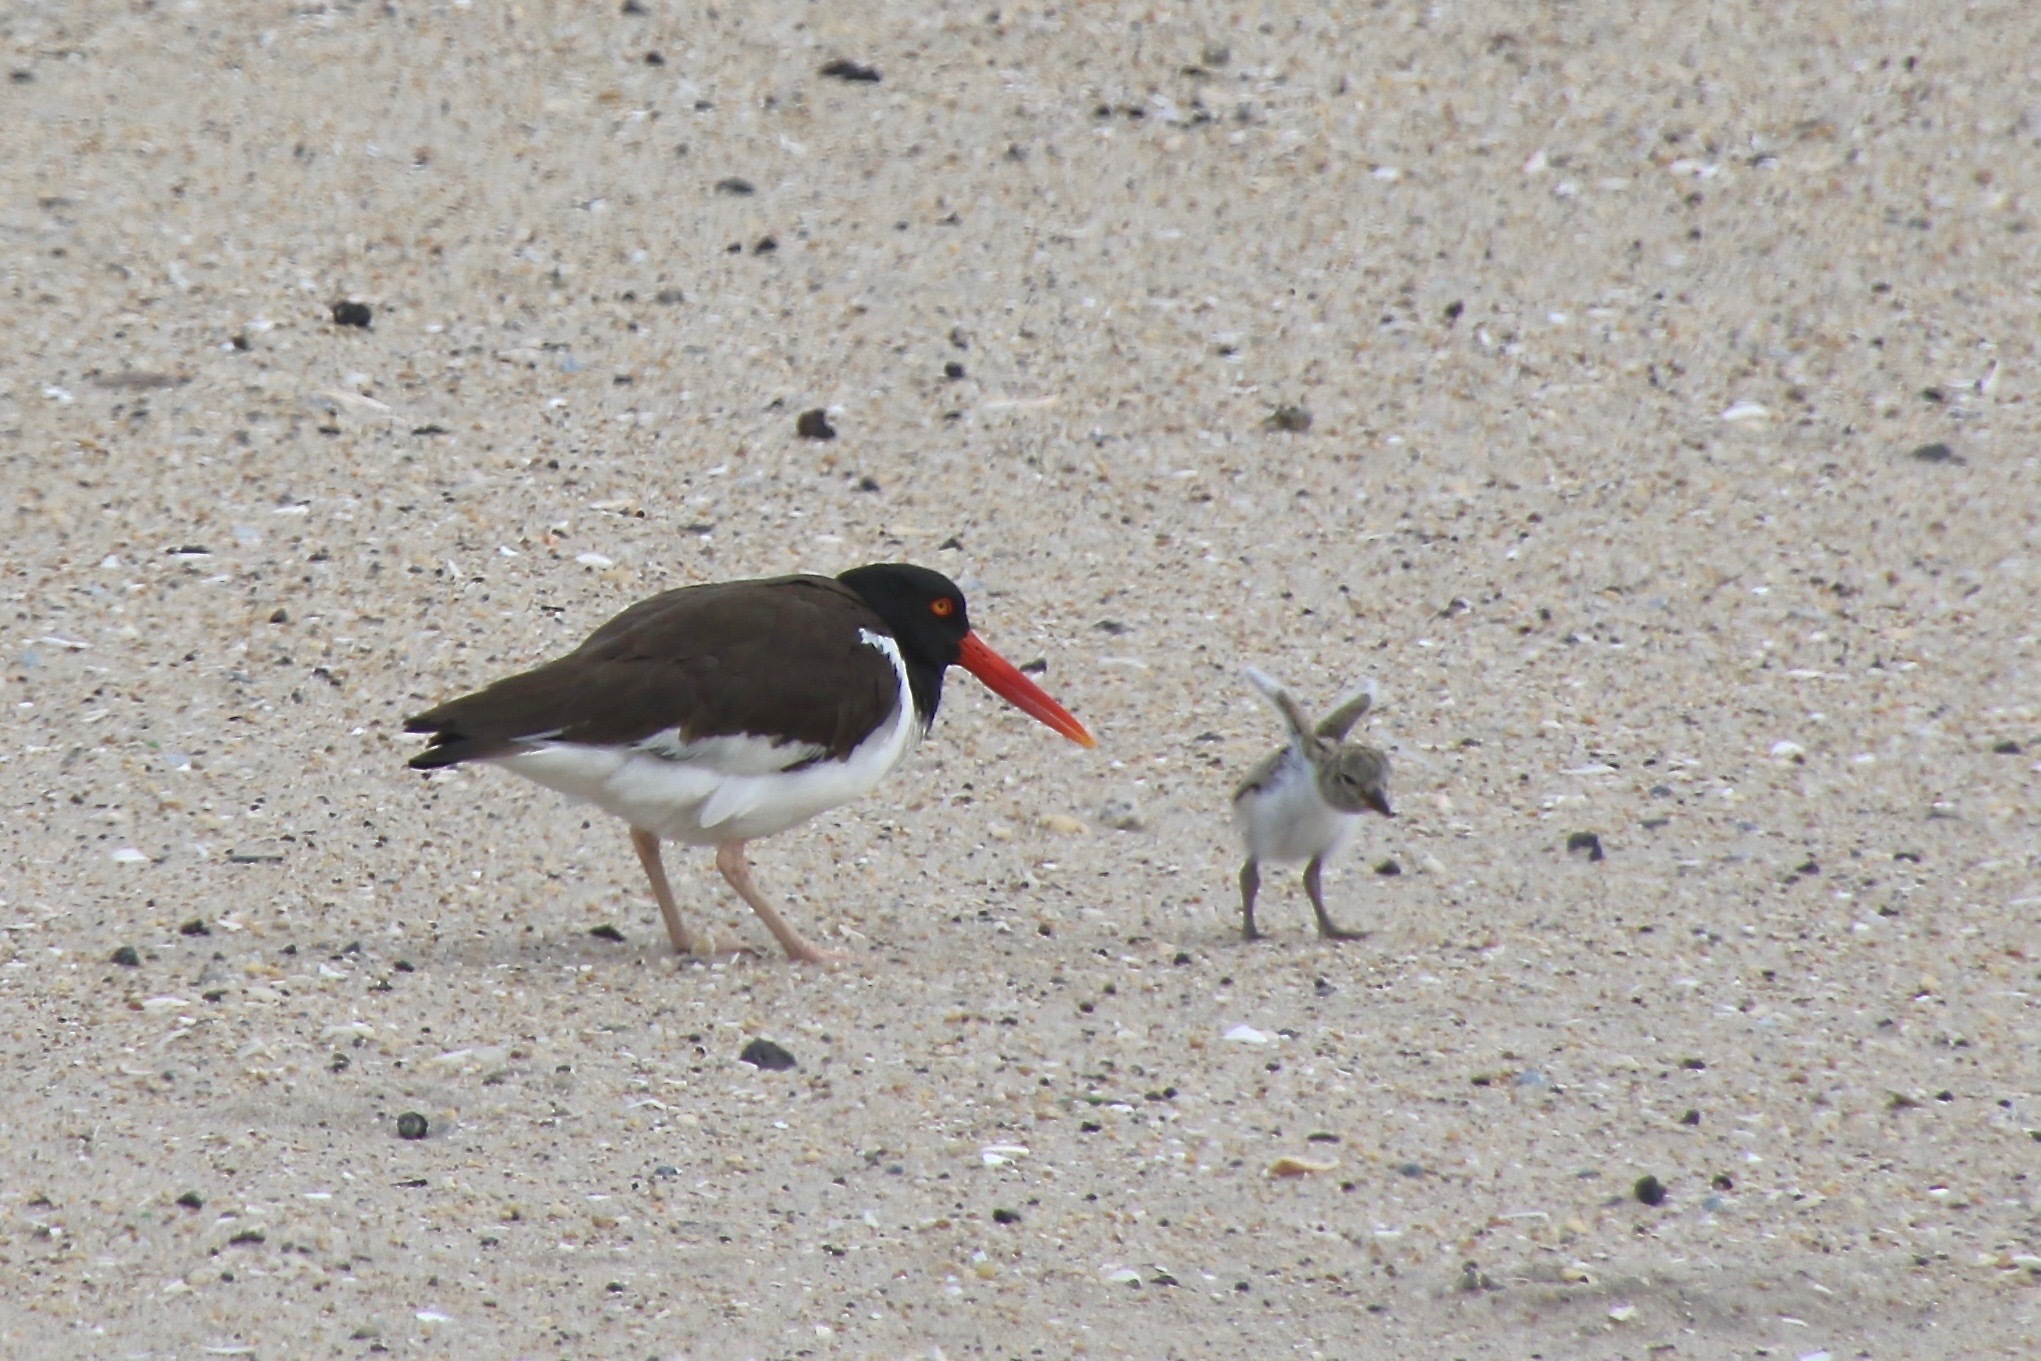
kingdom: Animalia
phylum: Chordata
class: Aves
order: Charadriiformes
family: Haematopodidae
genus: Haematopus
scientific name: Haematopus palliatus
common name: American oystercatcher
